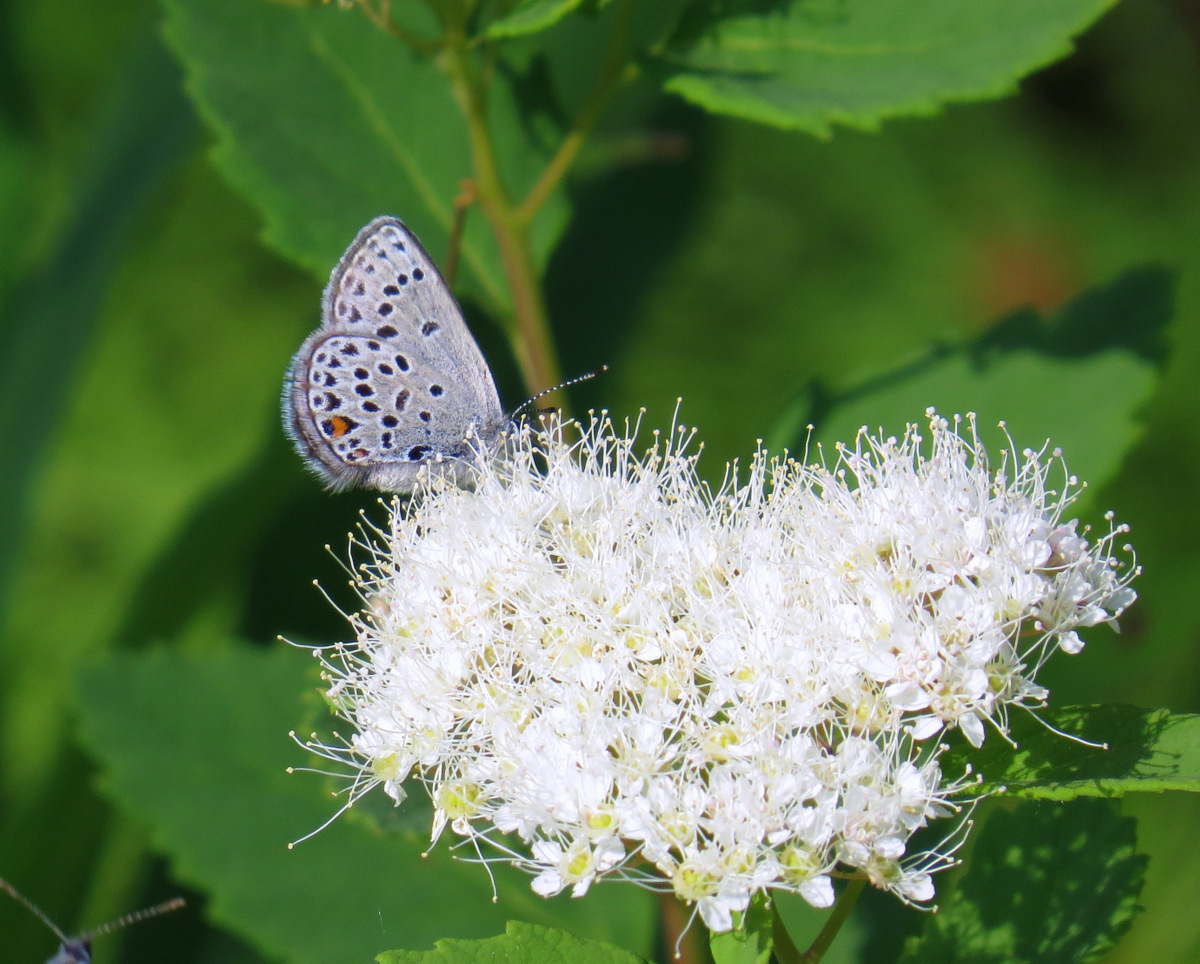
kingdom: Animalia
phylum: Arthropoda
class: Insecta
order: Lepidoptera
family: Lycaenidae
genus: Vacciniina
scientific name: Vacciniina optilete
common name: Cranberry blue
